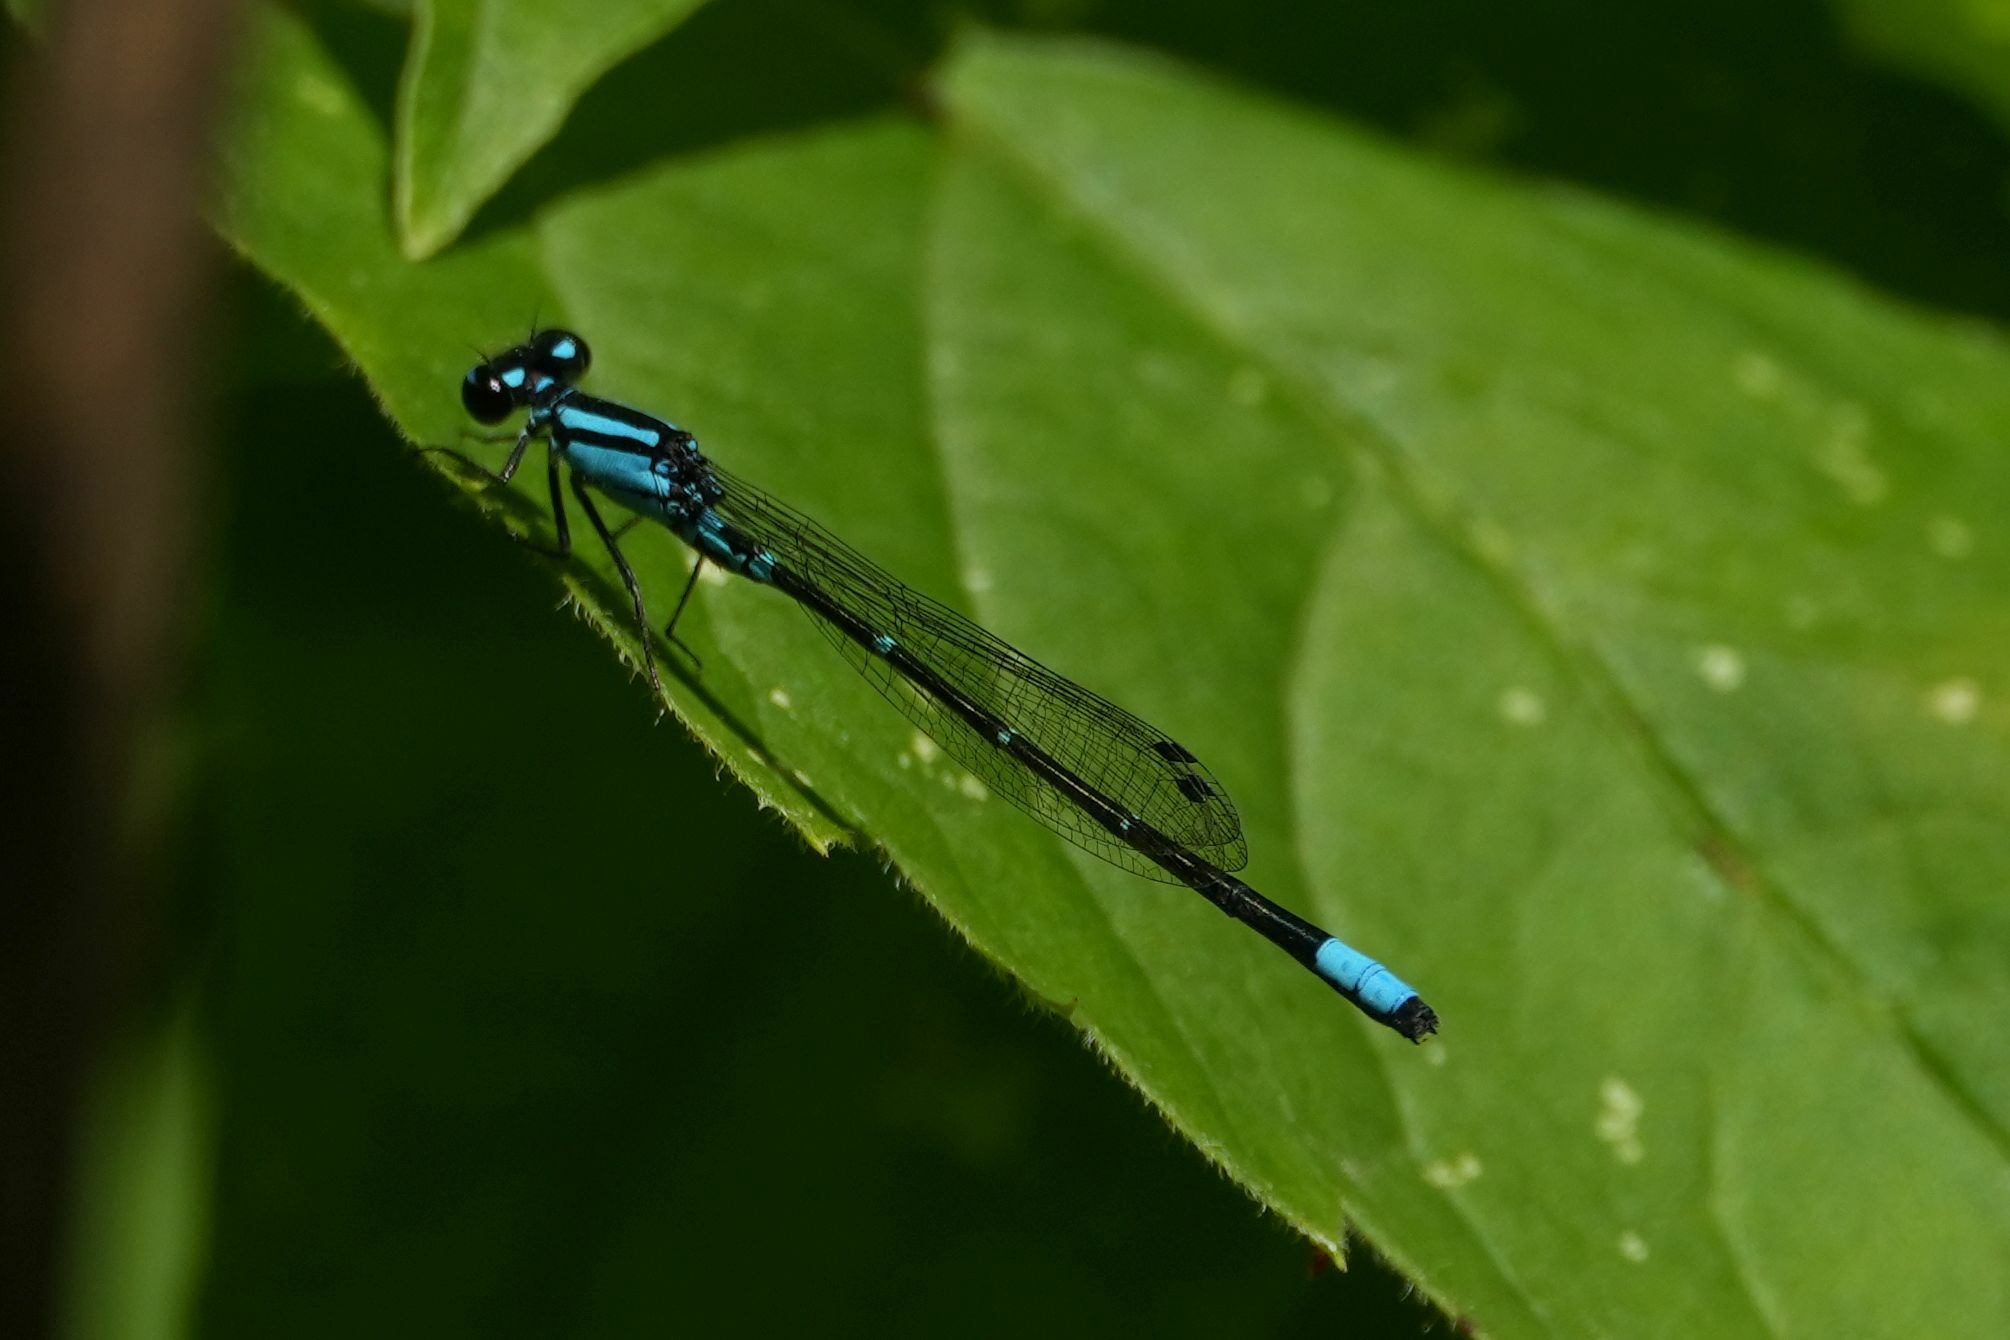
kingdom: Animalia
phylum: Arthropoda
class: Insecta
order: Odonata
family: Coenagrionidae
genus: Enallagma
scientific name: Enallagma geminatum
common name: Skimming bluet
